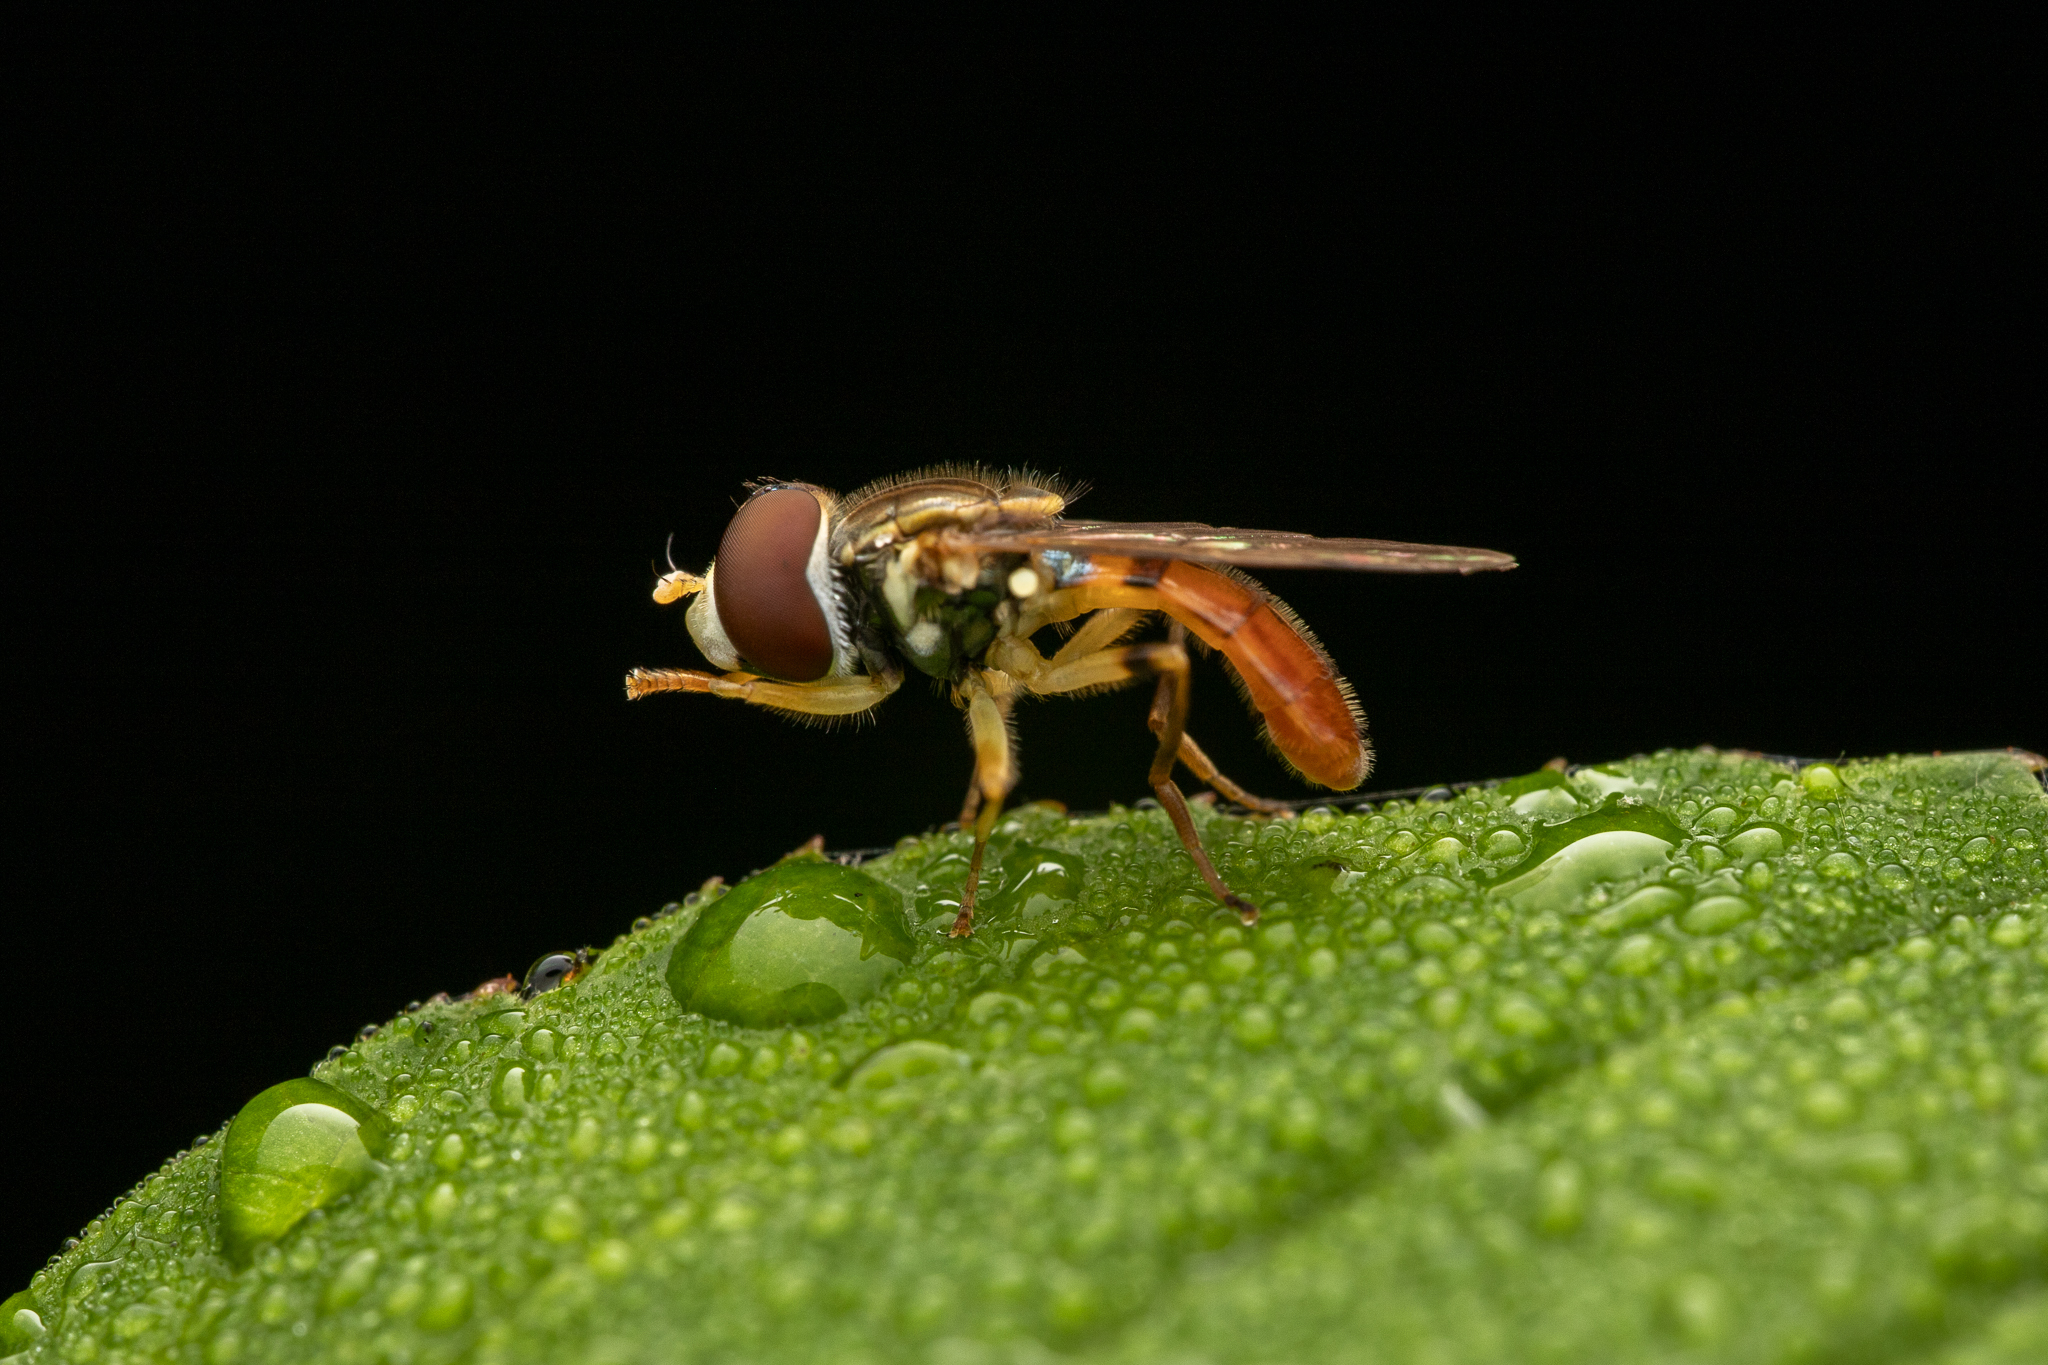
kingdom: Animalia
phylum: Arthropoda
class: Insecta
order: Diptera
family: Syrphidae
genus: Toxomerus
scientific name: Toxomerus boscii
